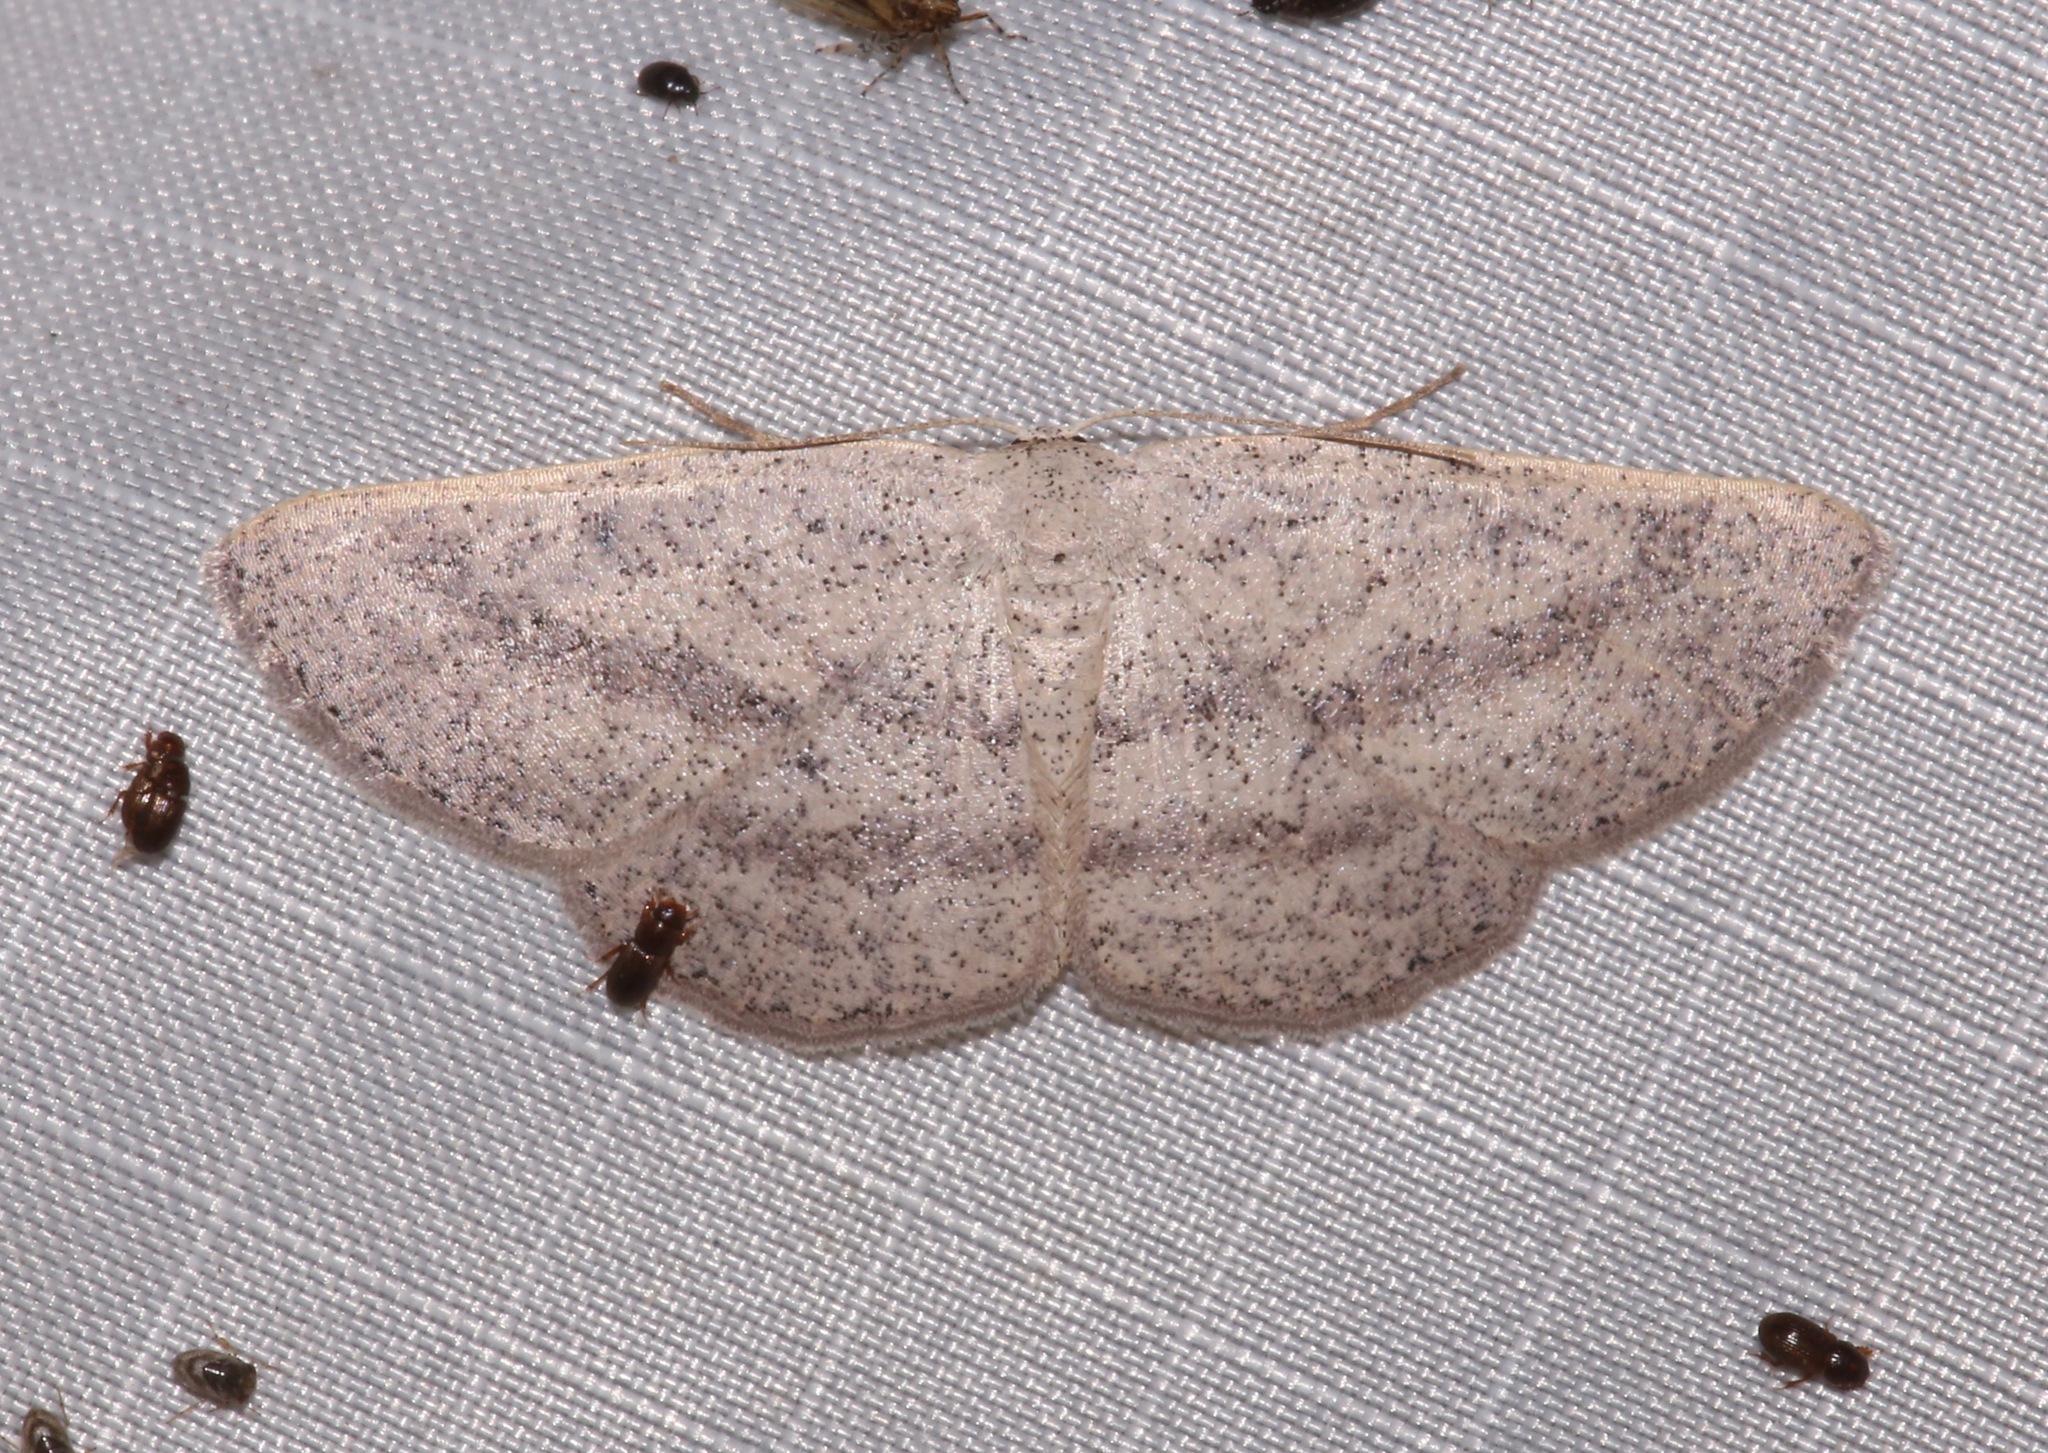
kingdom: Animalia
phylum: Arthropoda
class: Insecta
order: Lepidoptera
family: Geometridae
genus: Glena
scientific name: Glena cognataria
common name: Blueberry gray
